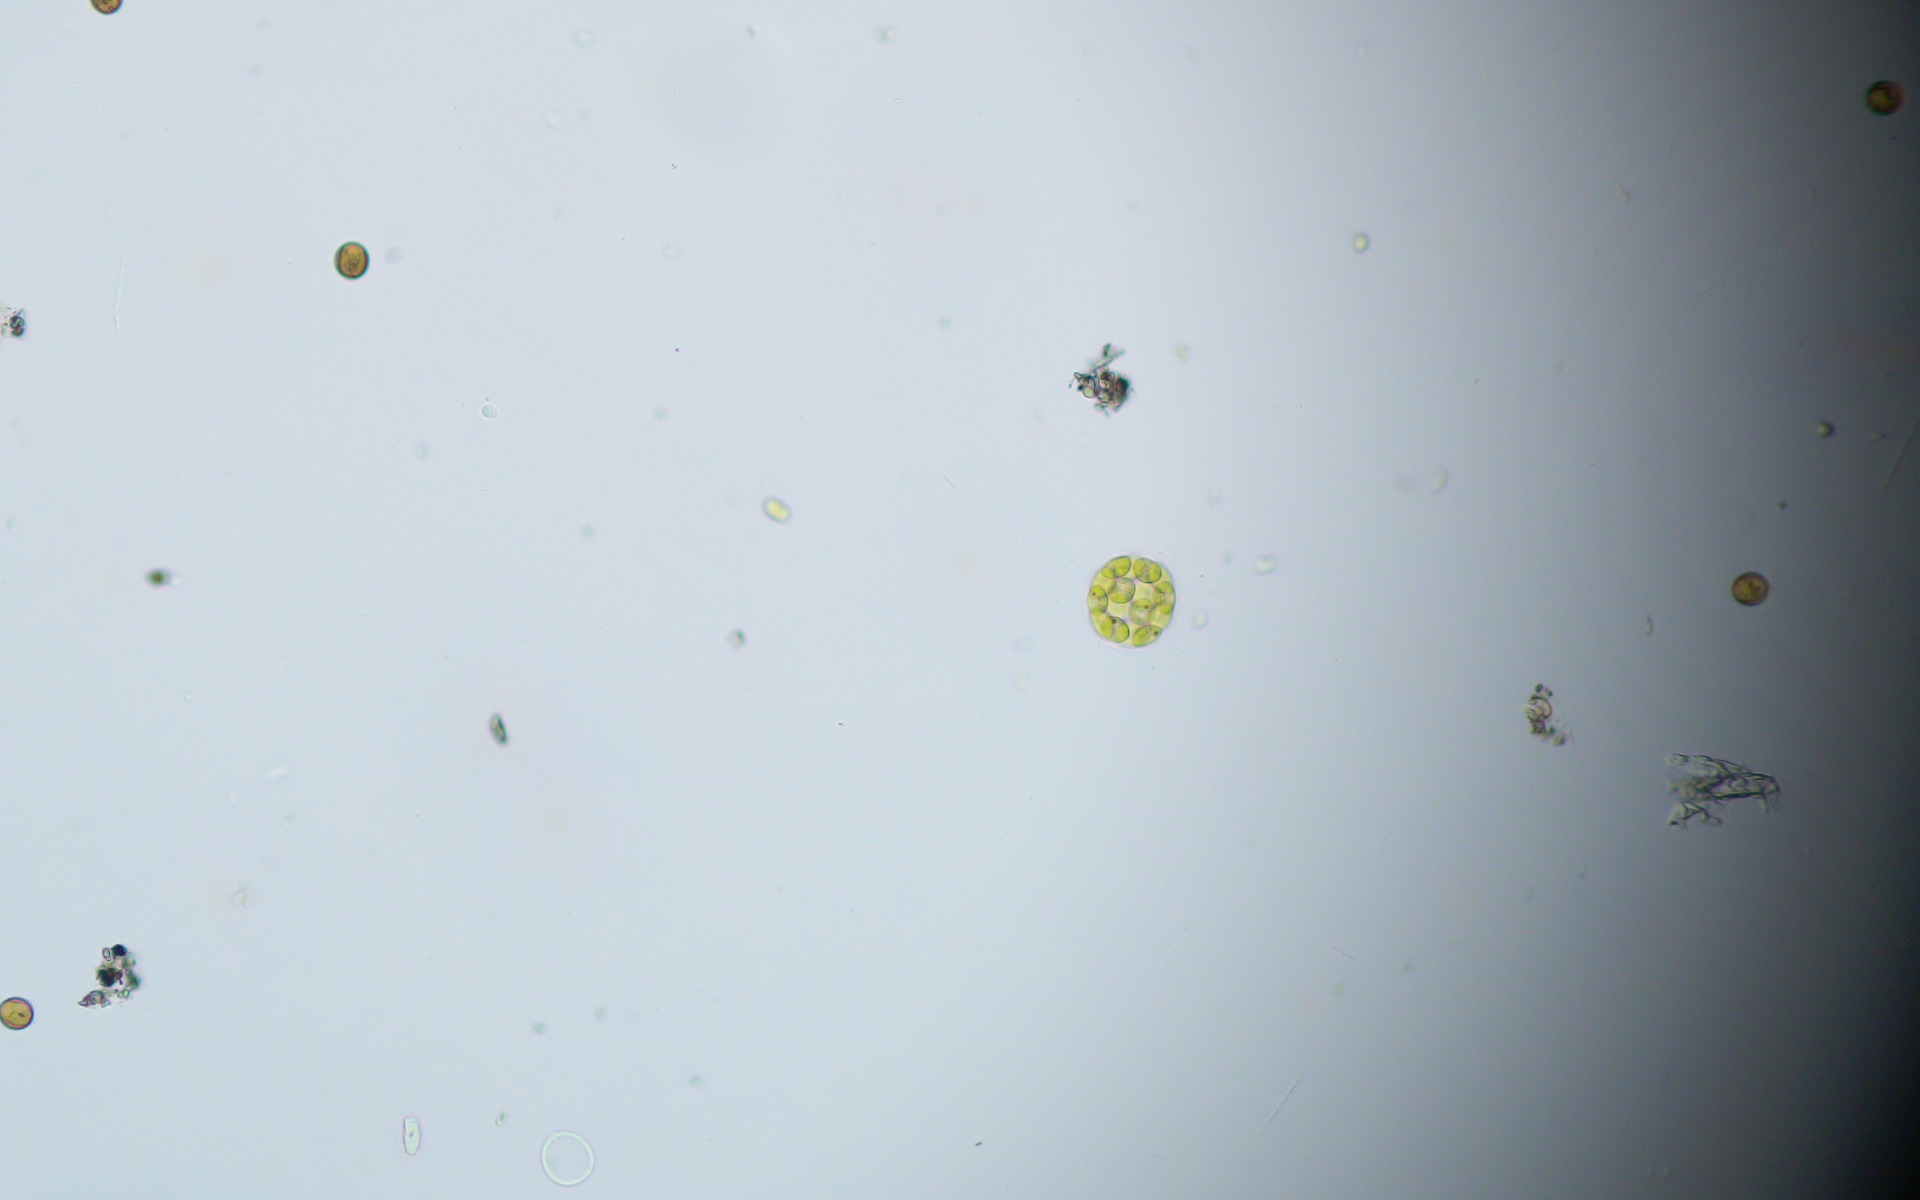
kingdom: Plantae
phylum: Chlorophyta
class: Chlorophyceae
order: Volvocales
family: Volvocaceae
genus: Volvulina
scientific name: Volvulina
